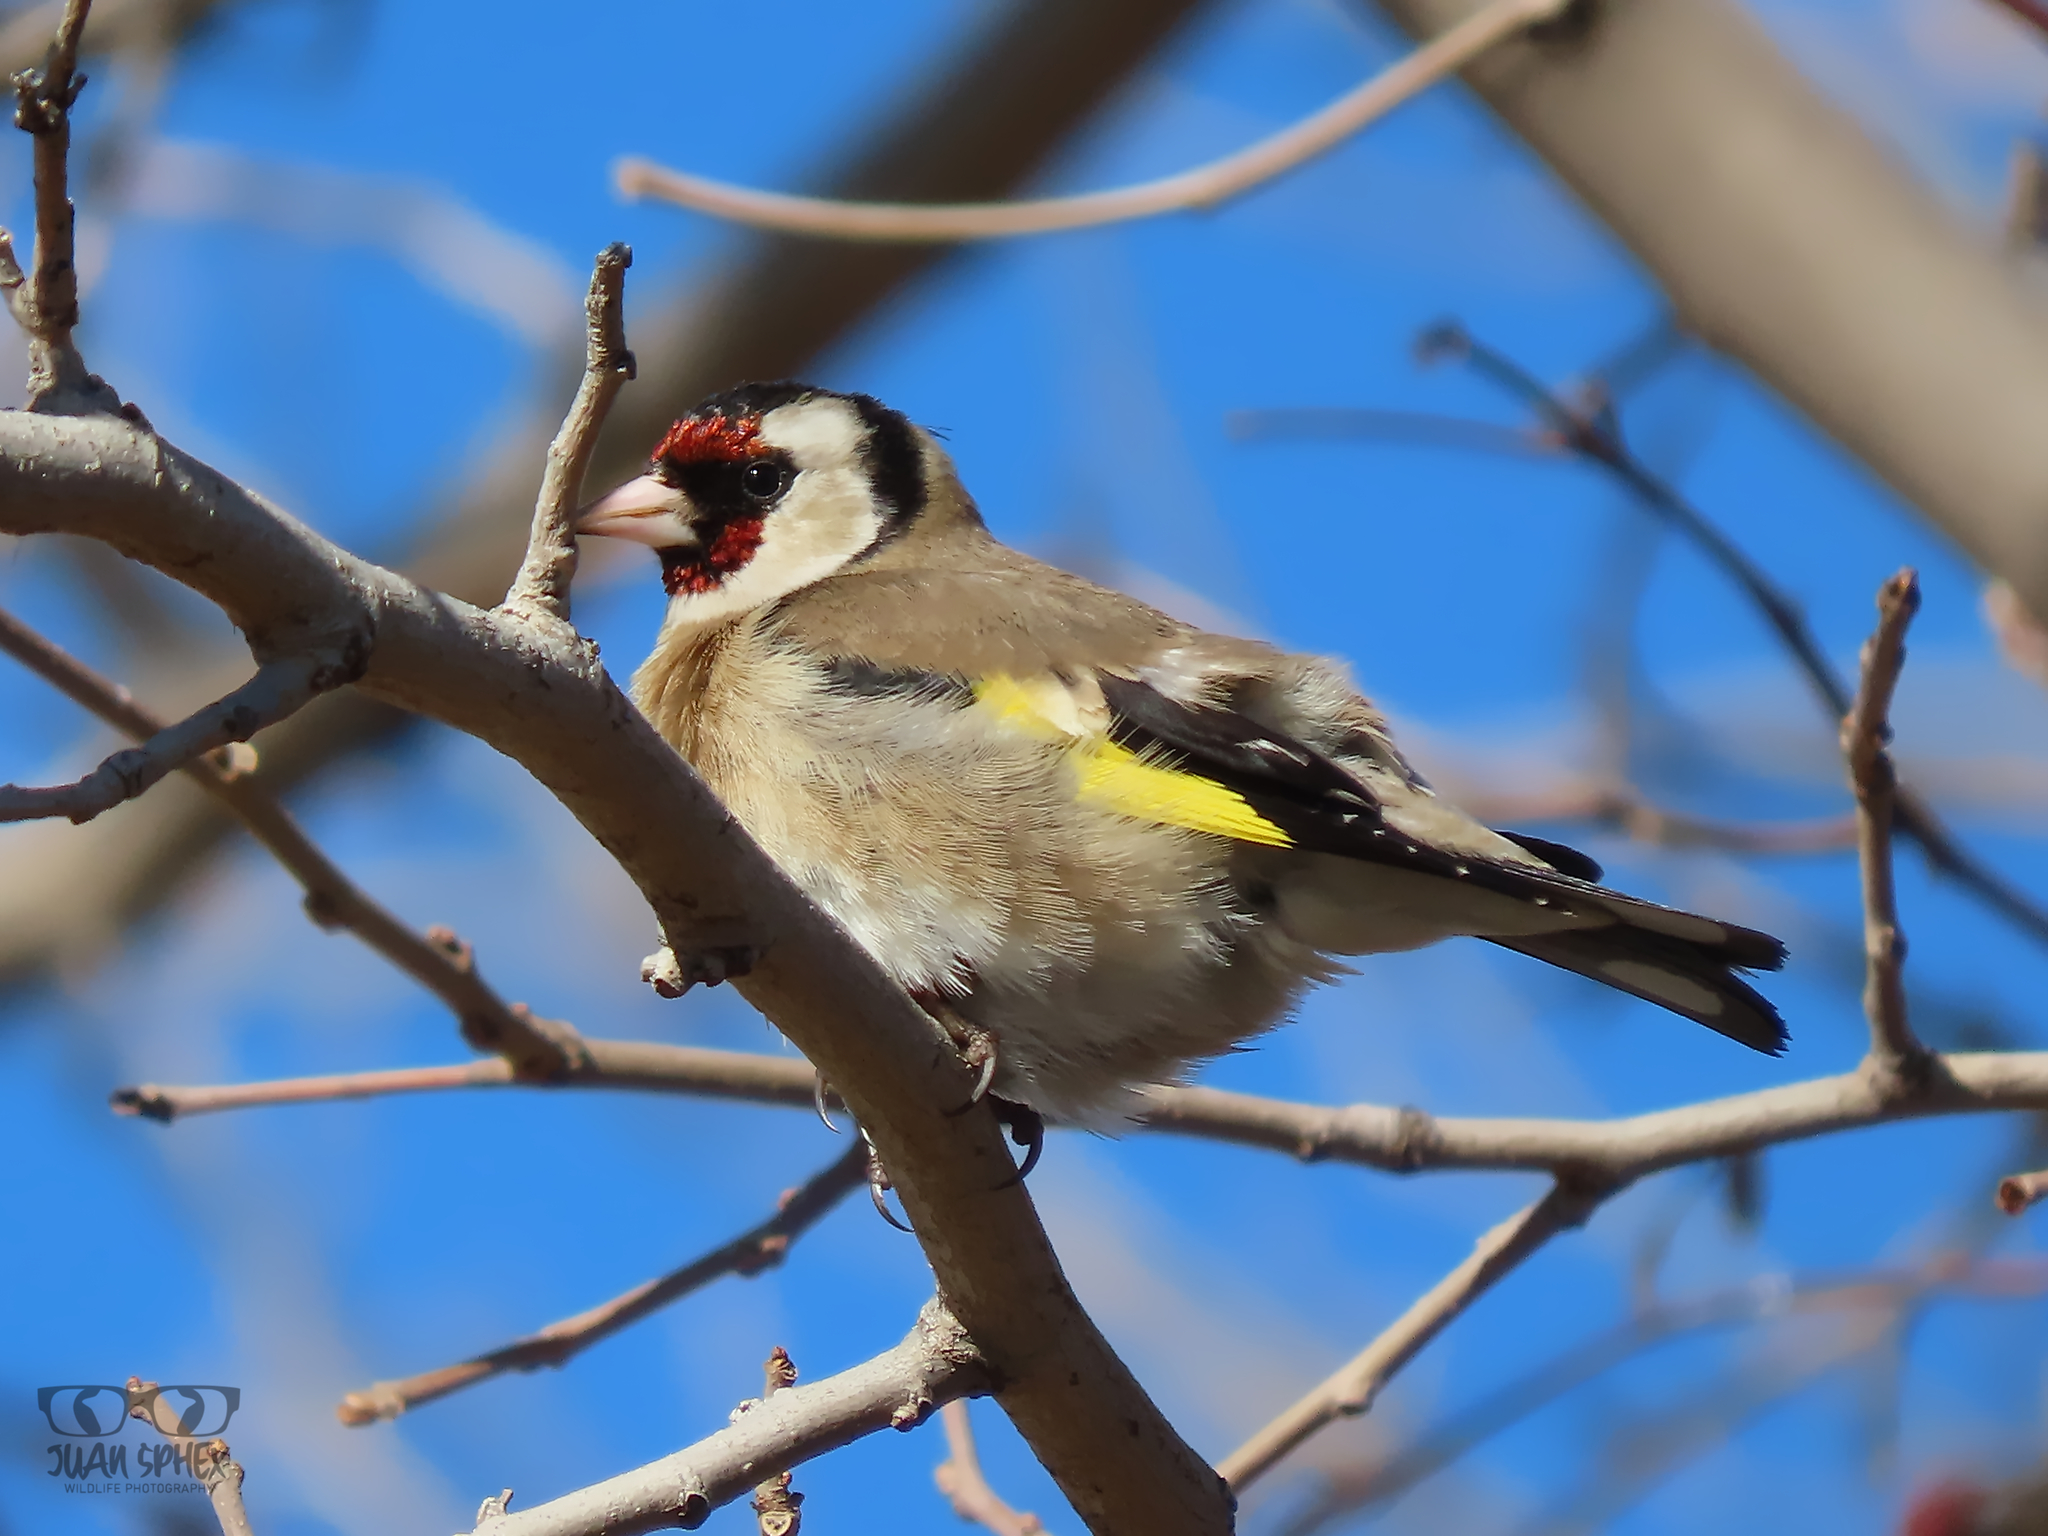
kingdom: Animalia
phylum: Chordata
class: Aves
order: Passeriformes
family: Fringillidae
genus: Carduelis
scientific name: Carduelis carduelis
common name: European goldfinch
